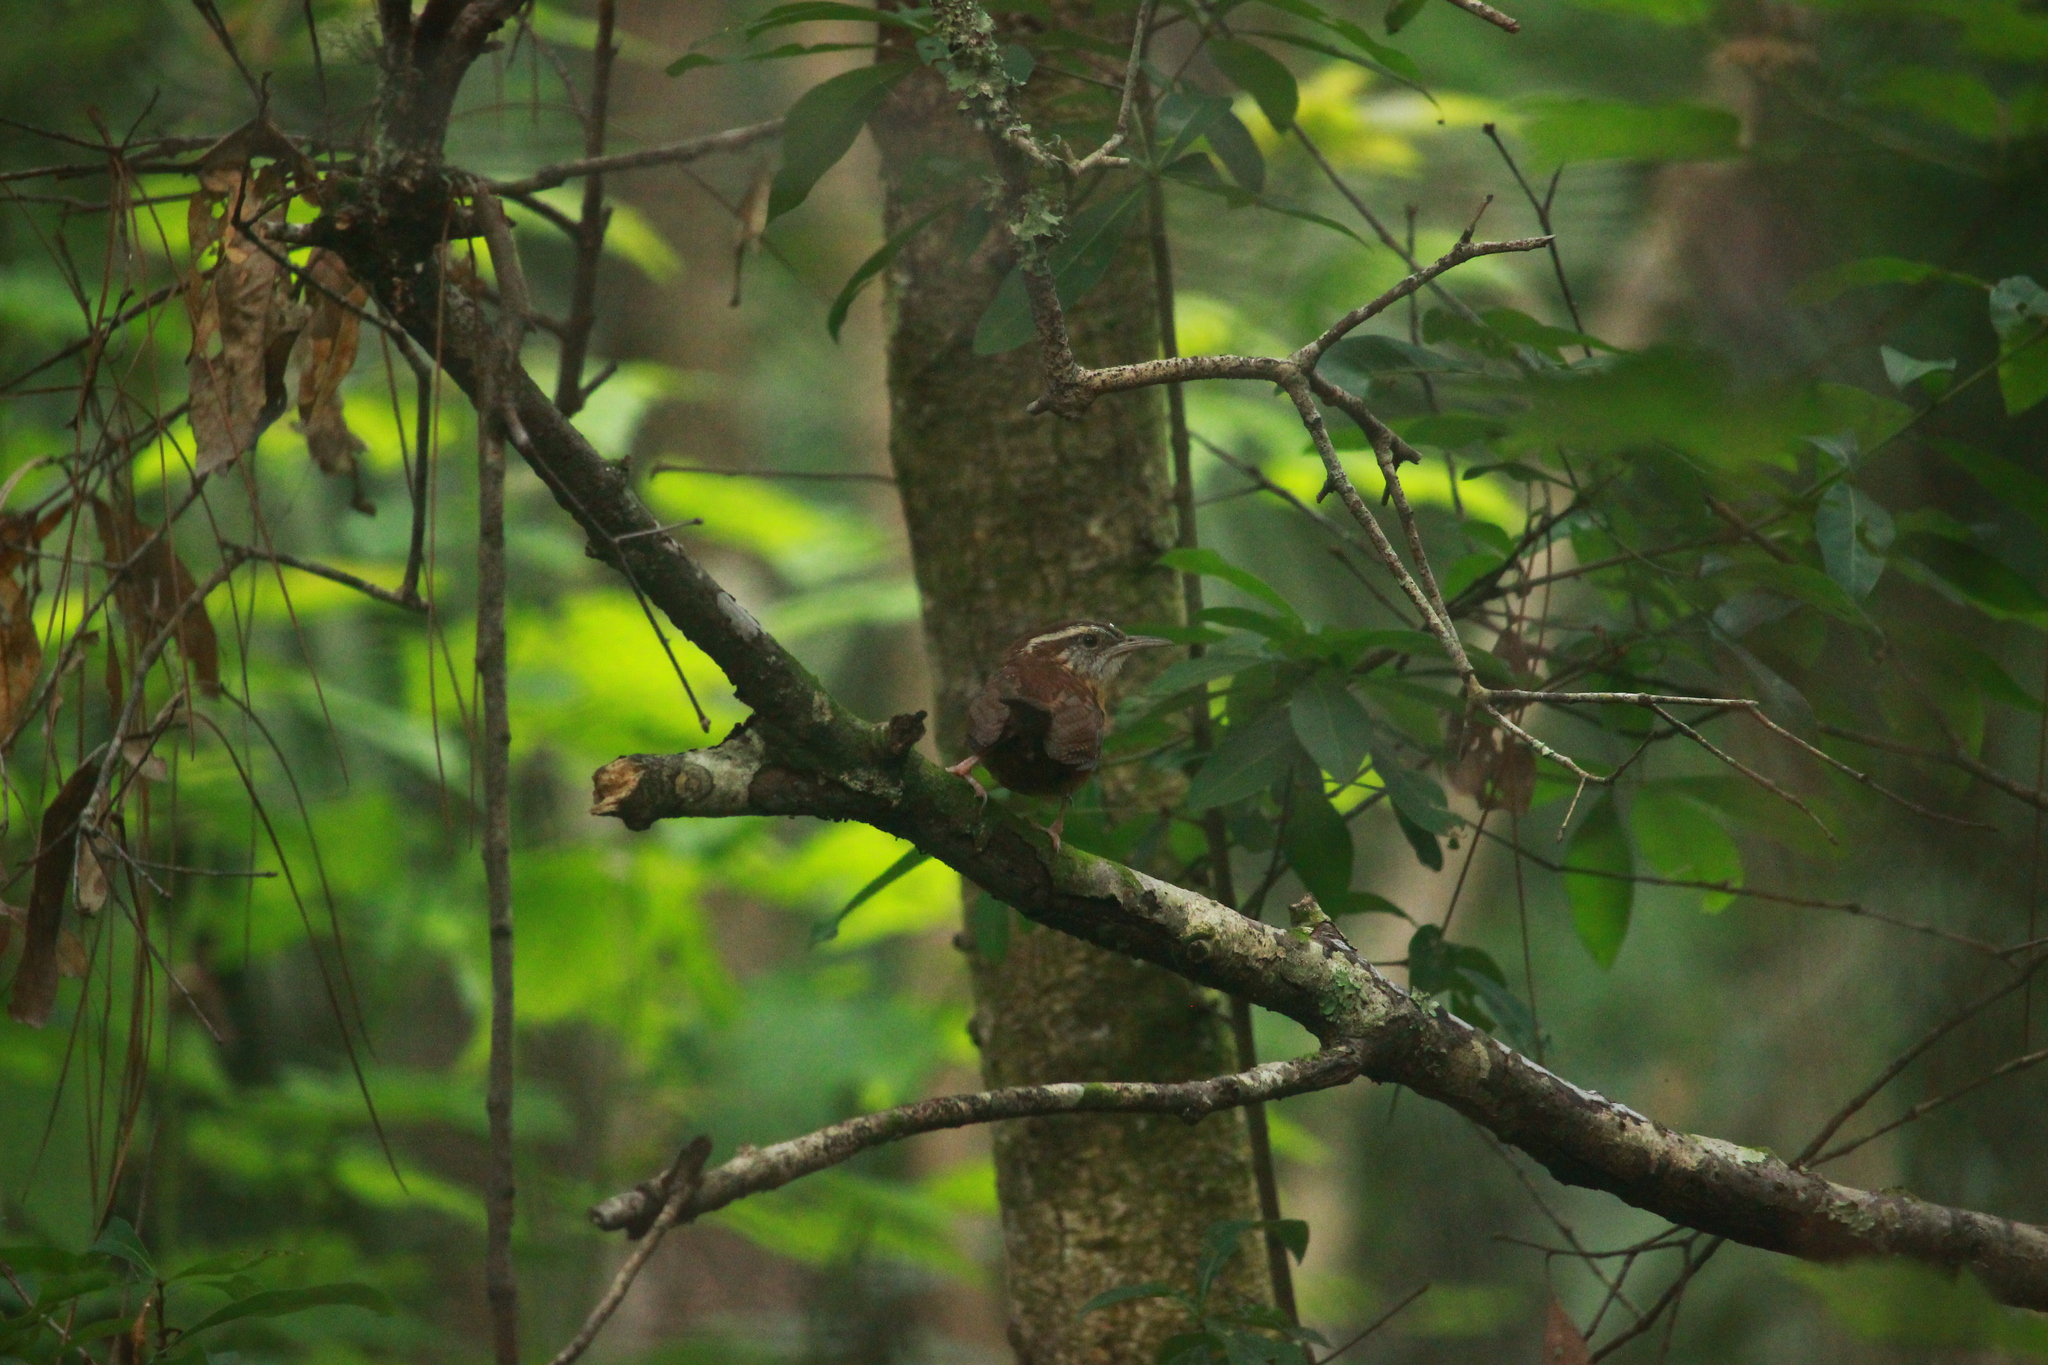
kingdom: Animalia
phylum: Chordata
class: Aves
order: Passeriformes
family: Troglodytidae
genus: Thryothorus
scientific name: Thryothorus ludovicianus
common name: Carolina wren
